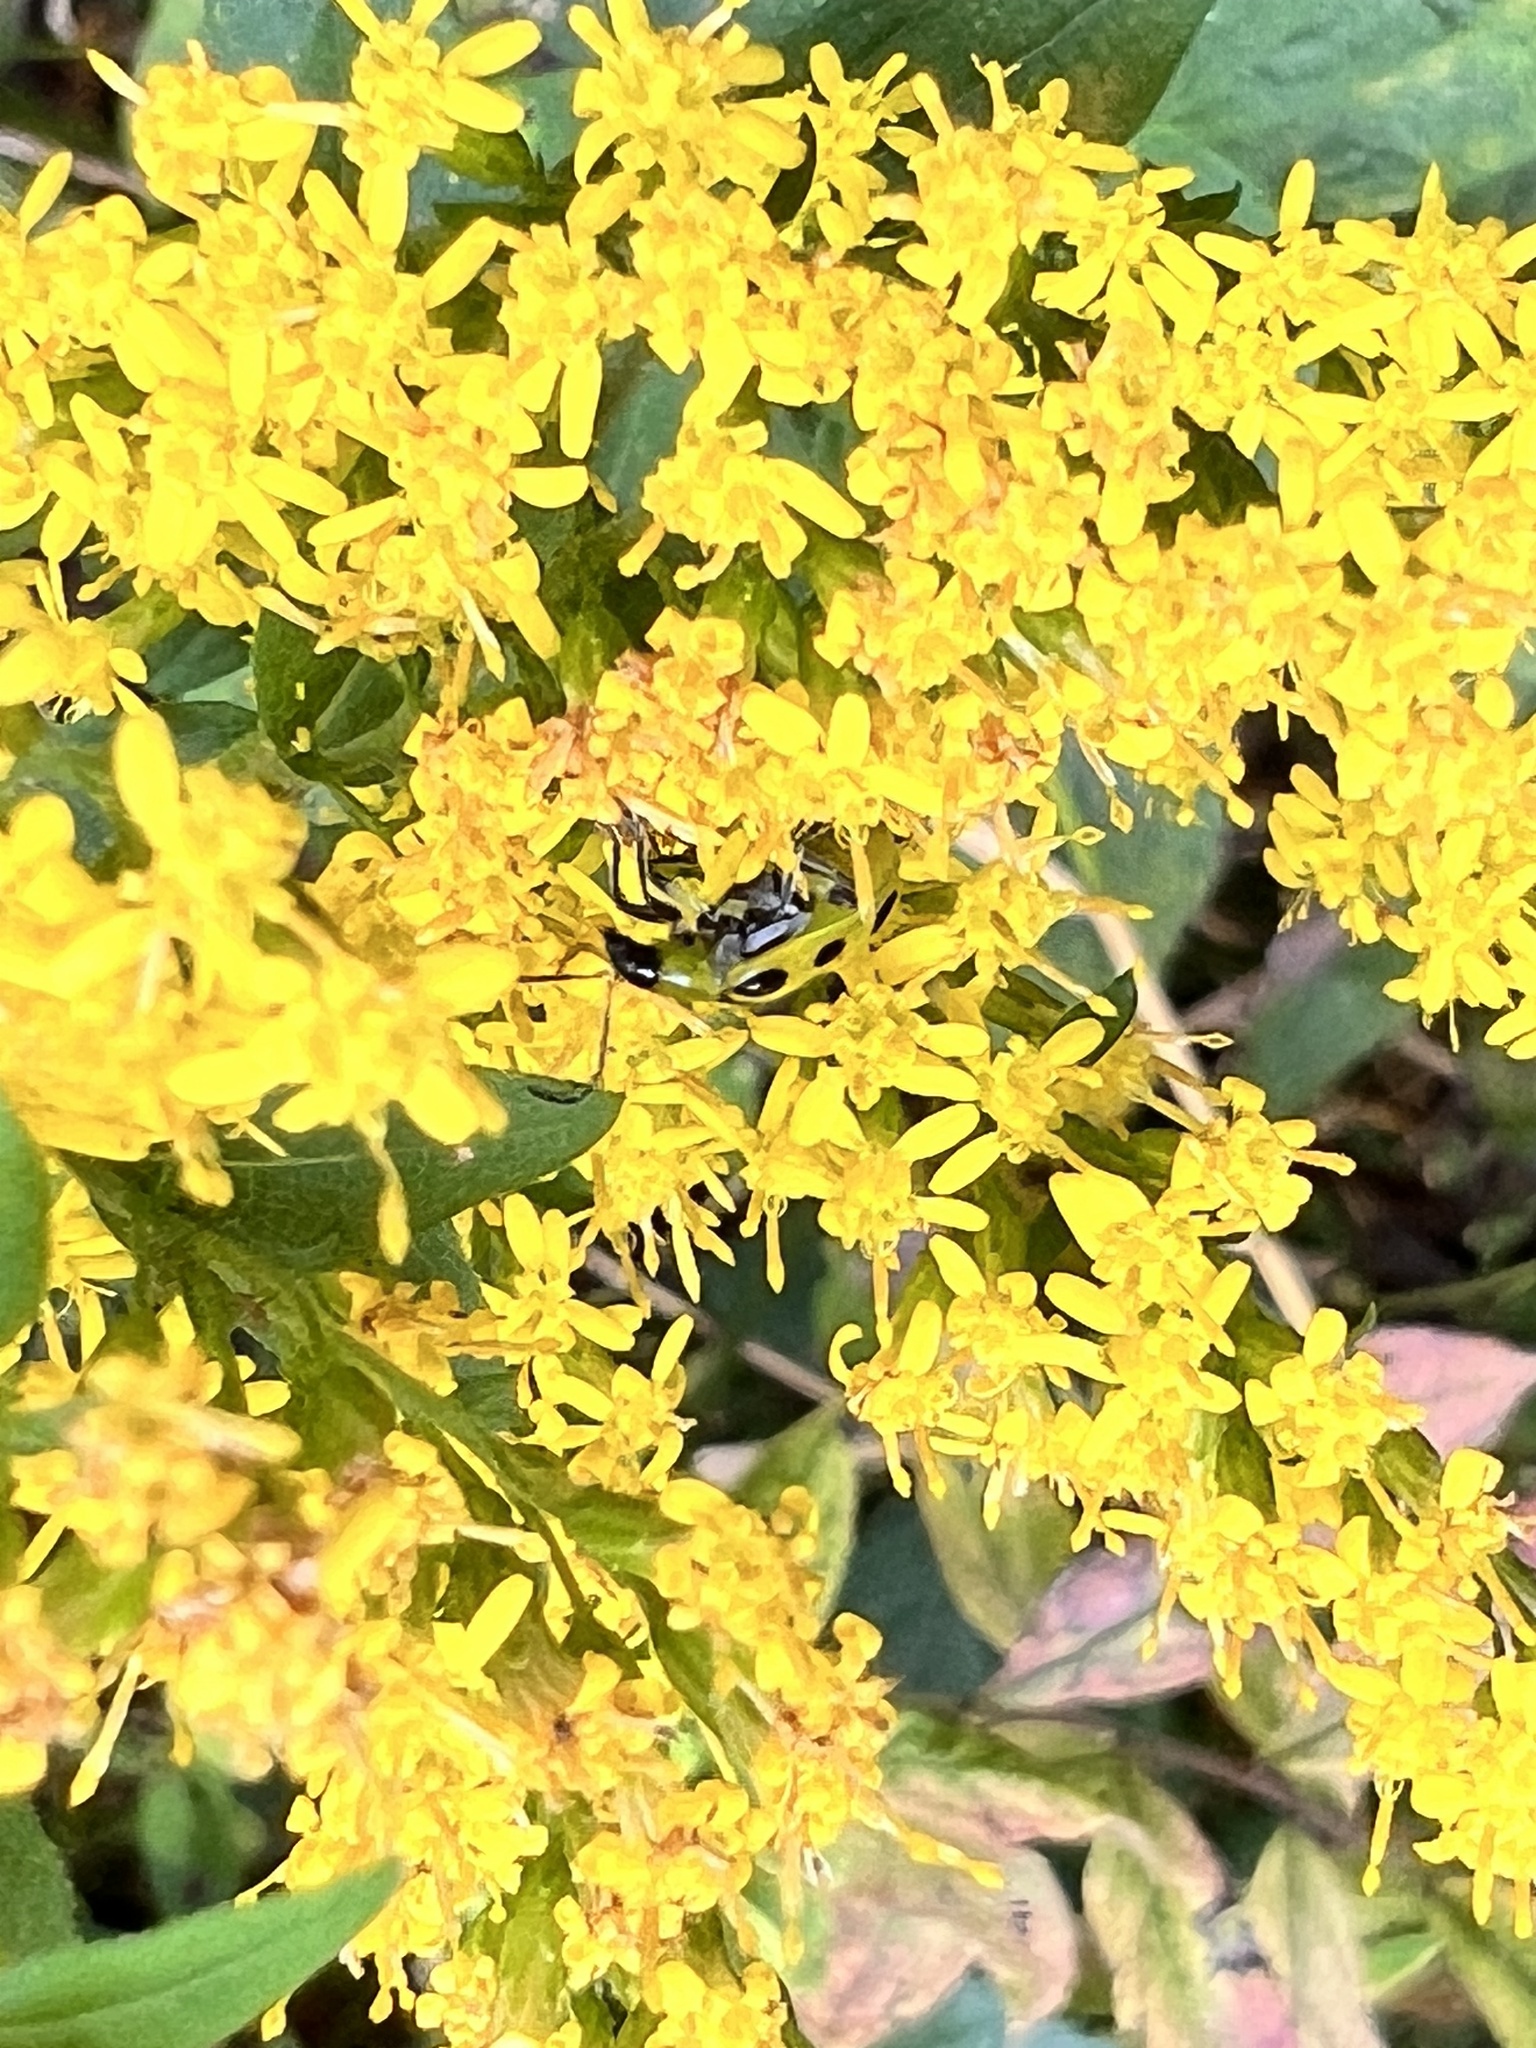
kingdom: Animalia
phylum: Arthropoda
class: Insecta
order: Coleoptera
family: Chrysomelidae
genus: Diabrotica
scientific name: Diabrotica undecimpunctata
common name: Spotted cucumber beetle
